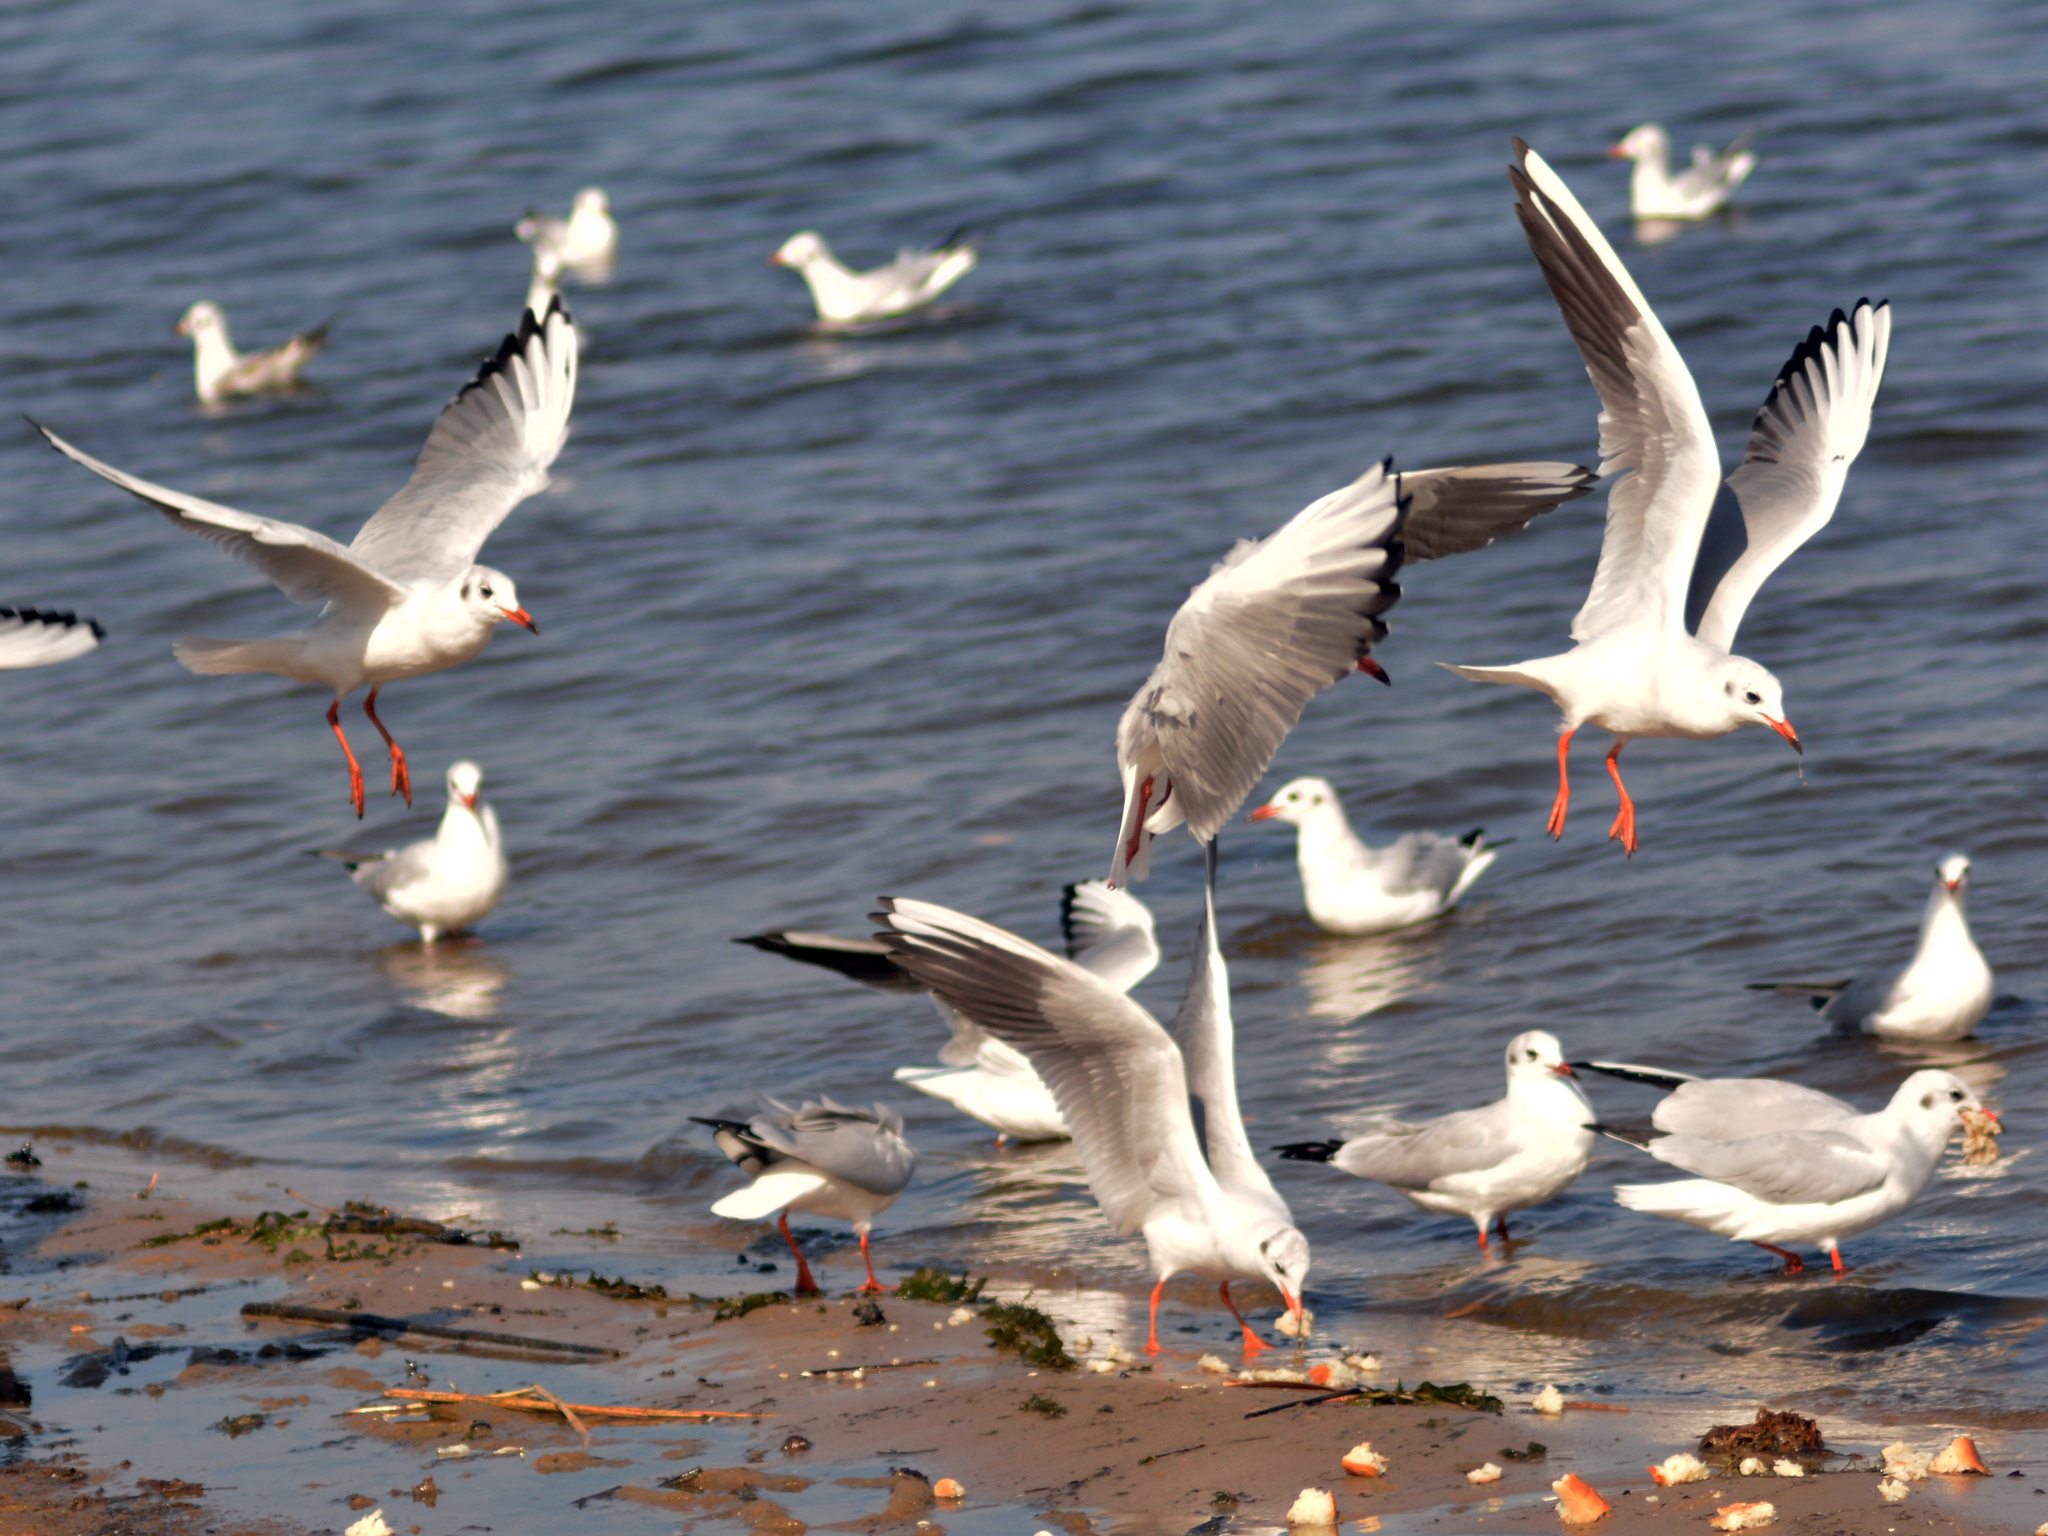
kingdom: Animalia
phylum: Chordata
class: Aves
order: Charadriiformes
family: Laridae
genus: Chroicocephalus
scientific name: Chroicocephalus ridibundus
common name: Black-headed gull
